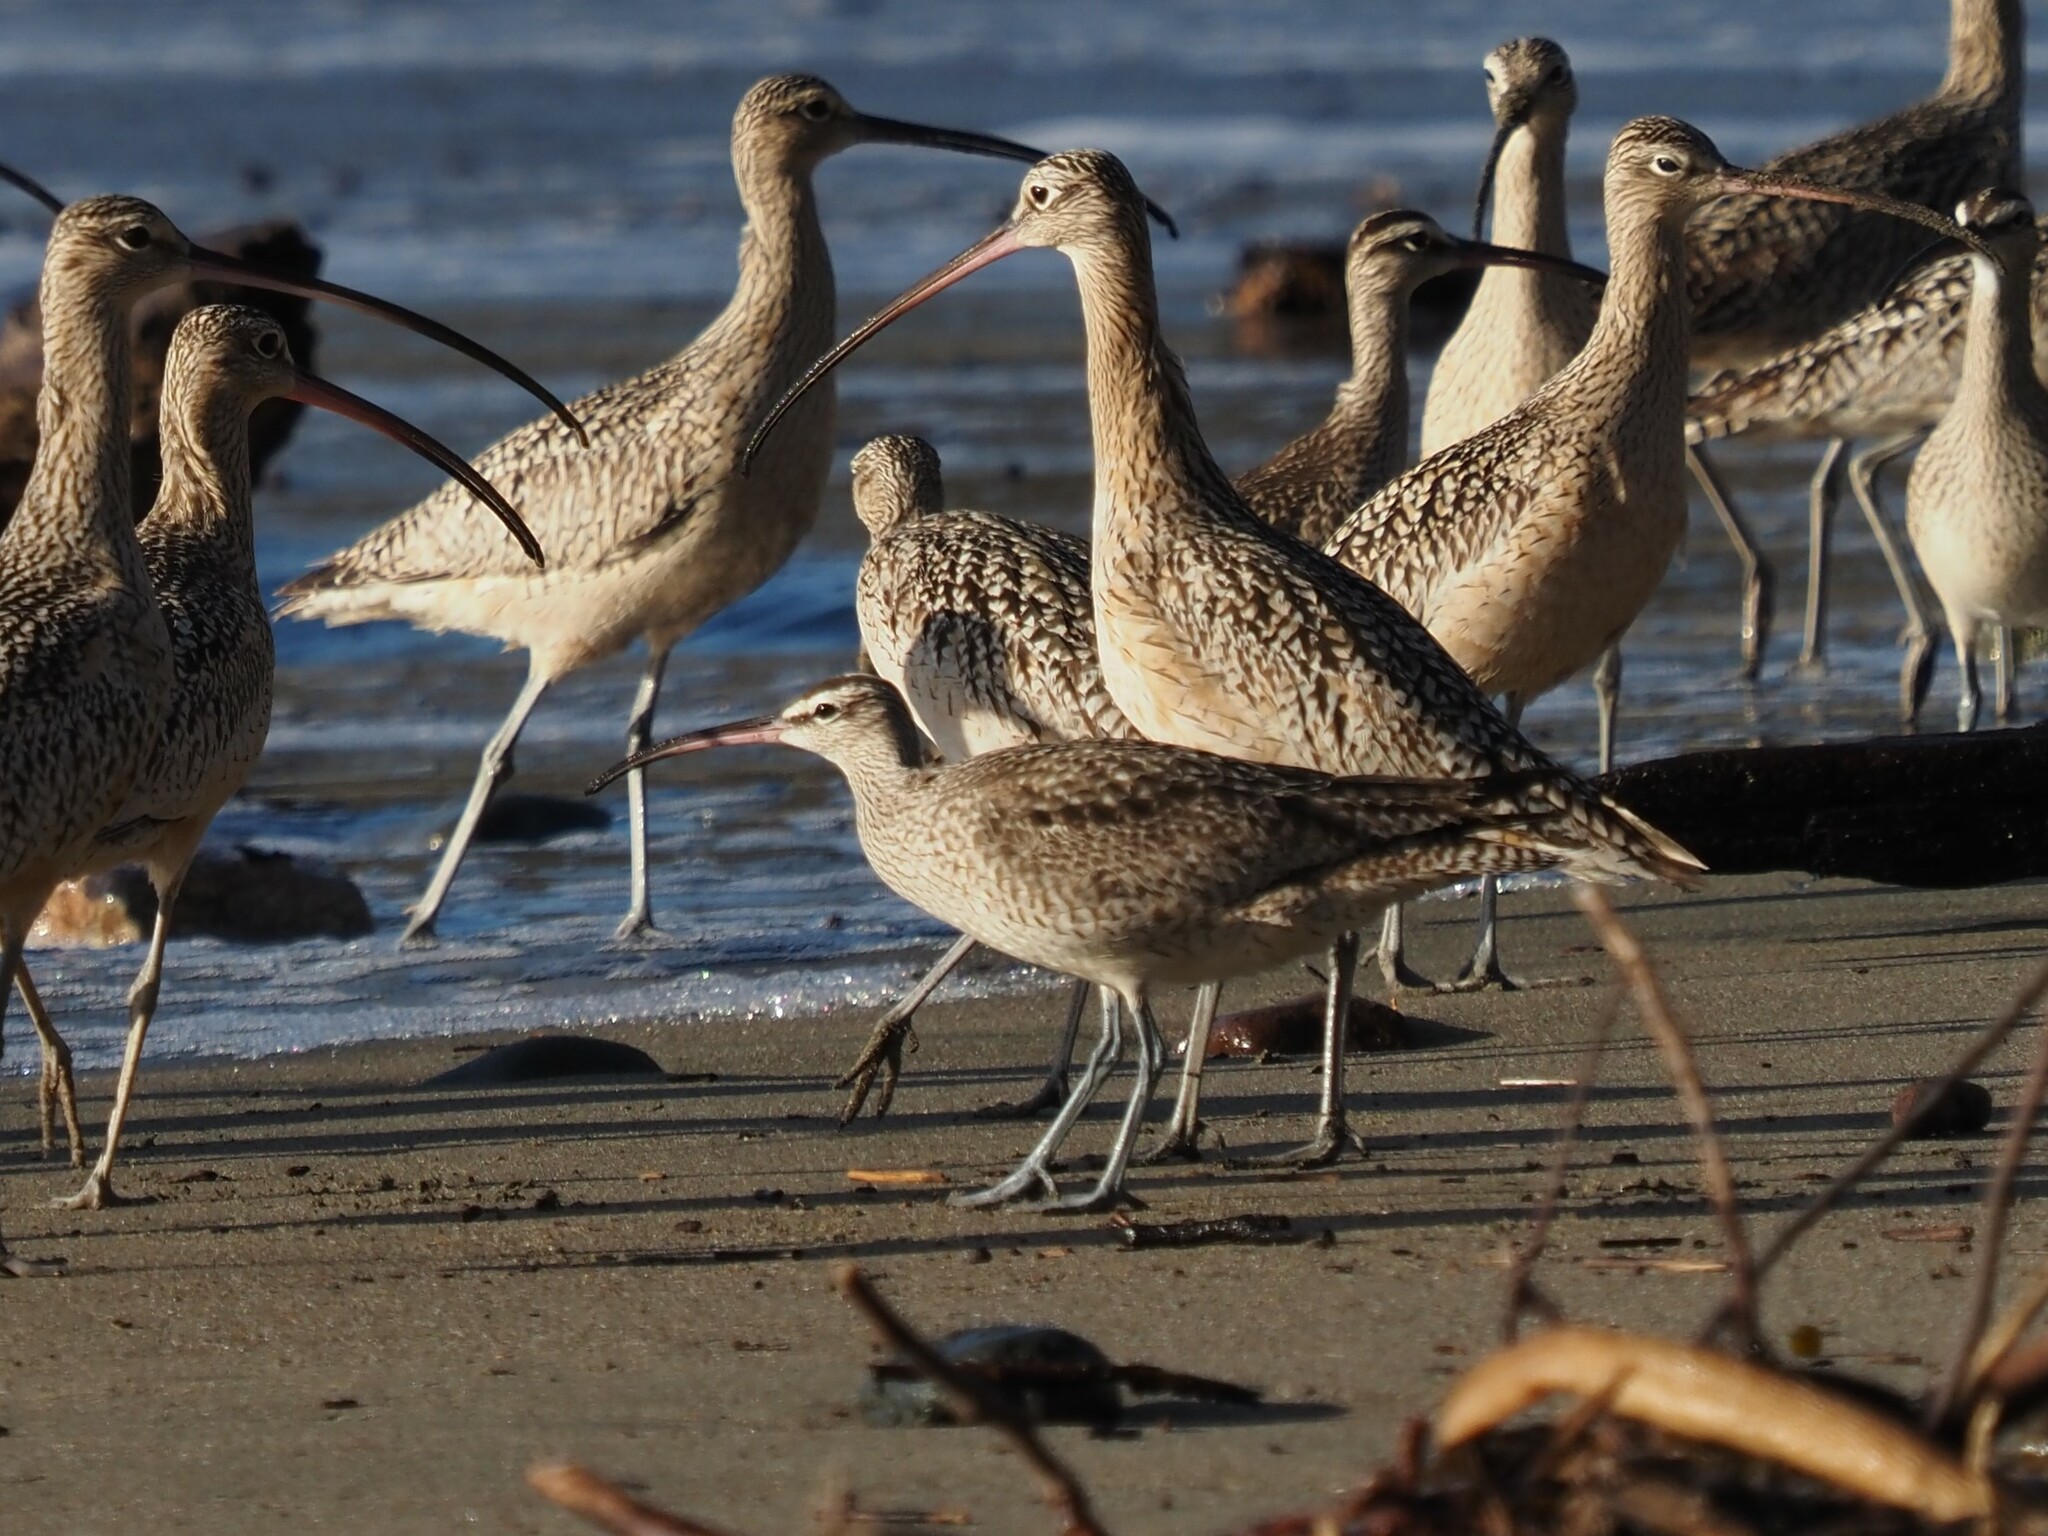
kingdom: Animalia
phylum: Chordata
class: Aves
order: Charadriiformes
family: Scolopacidae
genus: Numenius
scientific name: Numenius phaeopus
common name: Whimbrel
